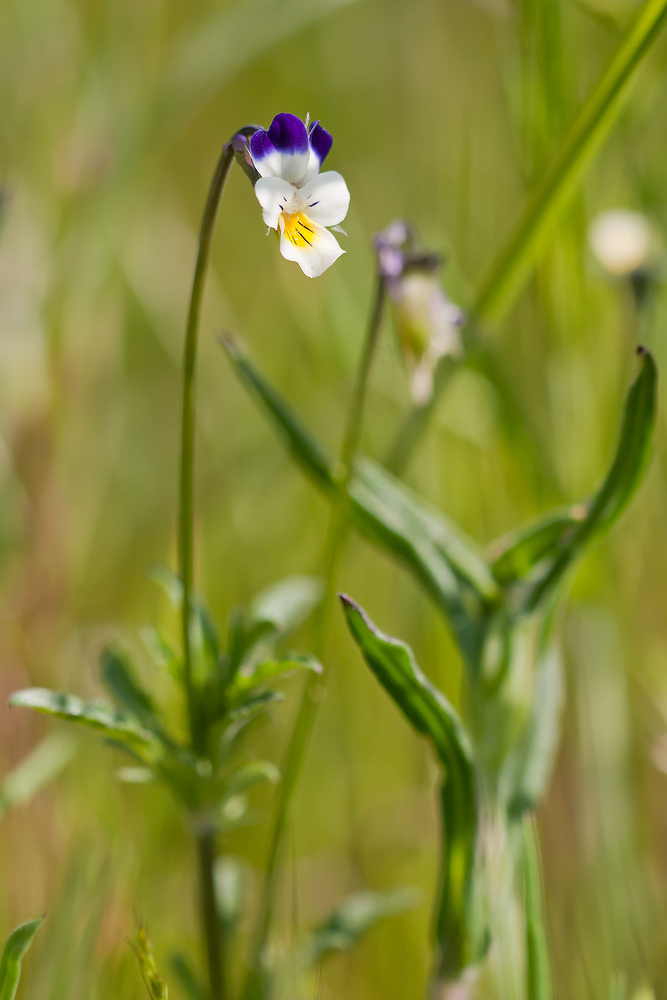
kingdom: Plantae
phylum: Tracheophyta
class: Magnoliopsida
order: Malpighiales
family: Violaceae
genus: Viola
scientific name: Viola arvensis
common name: Field pansy
